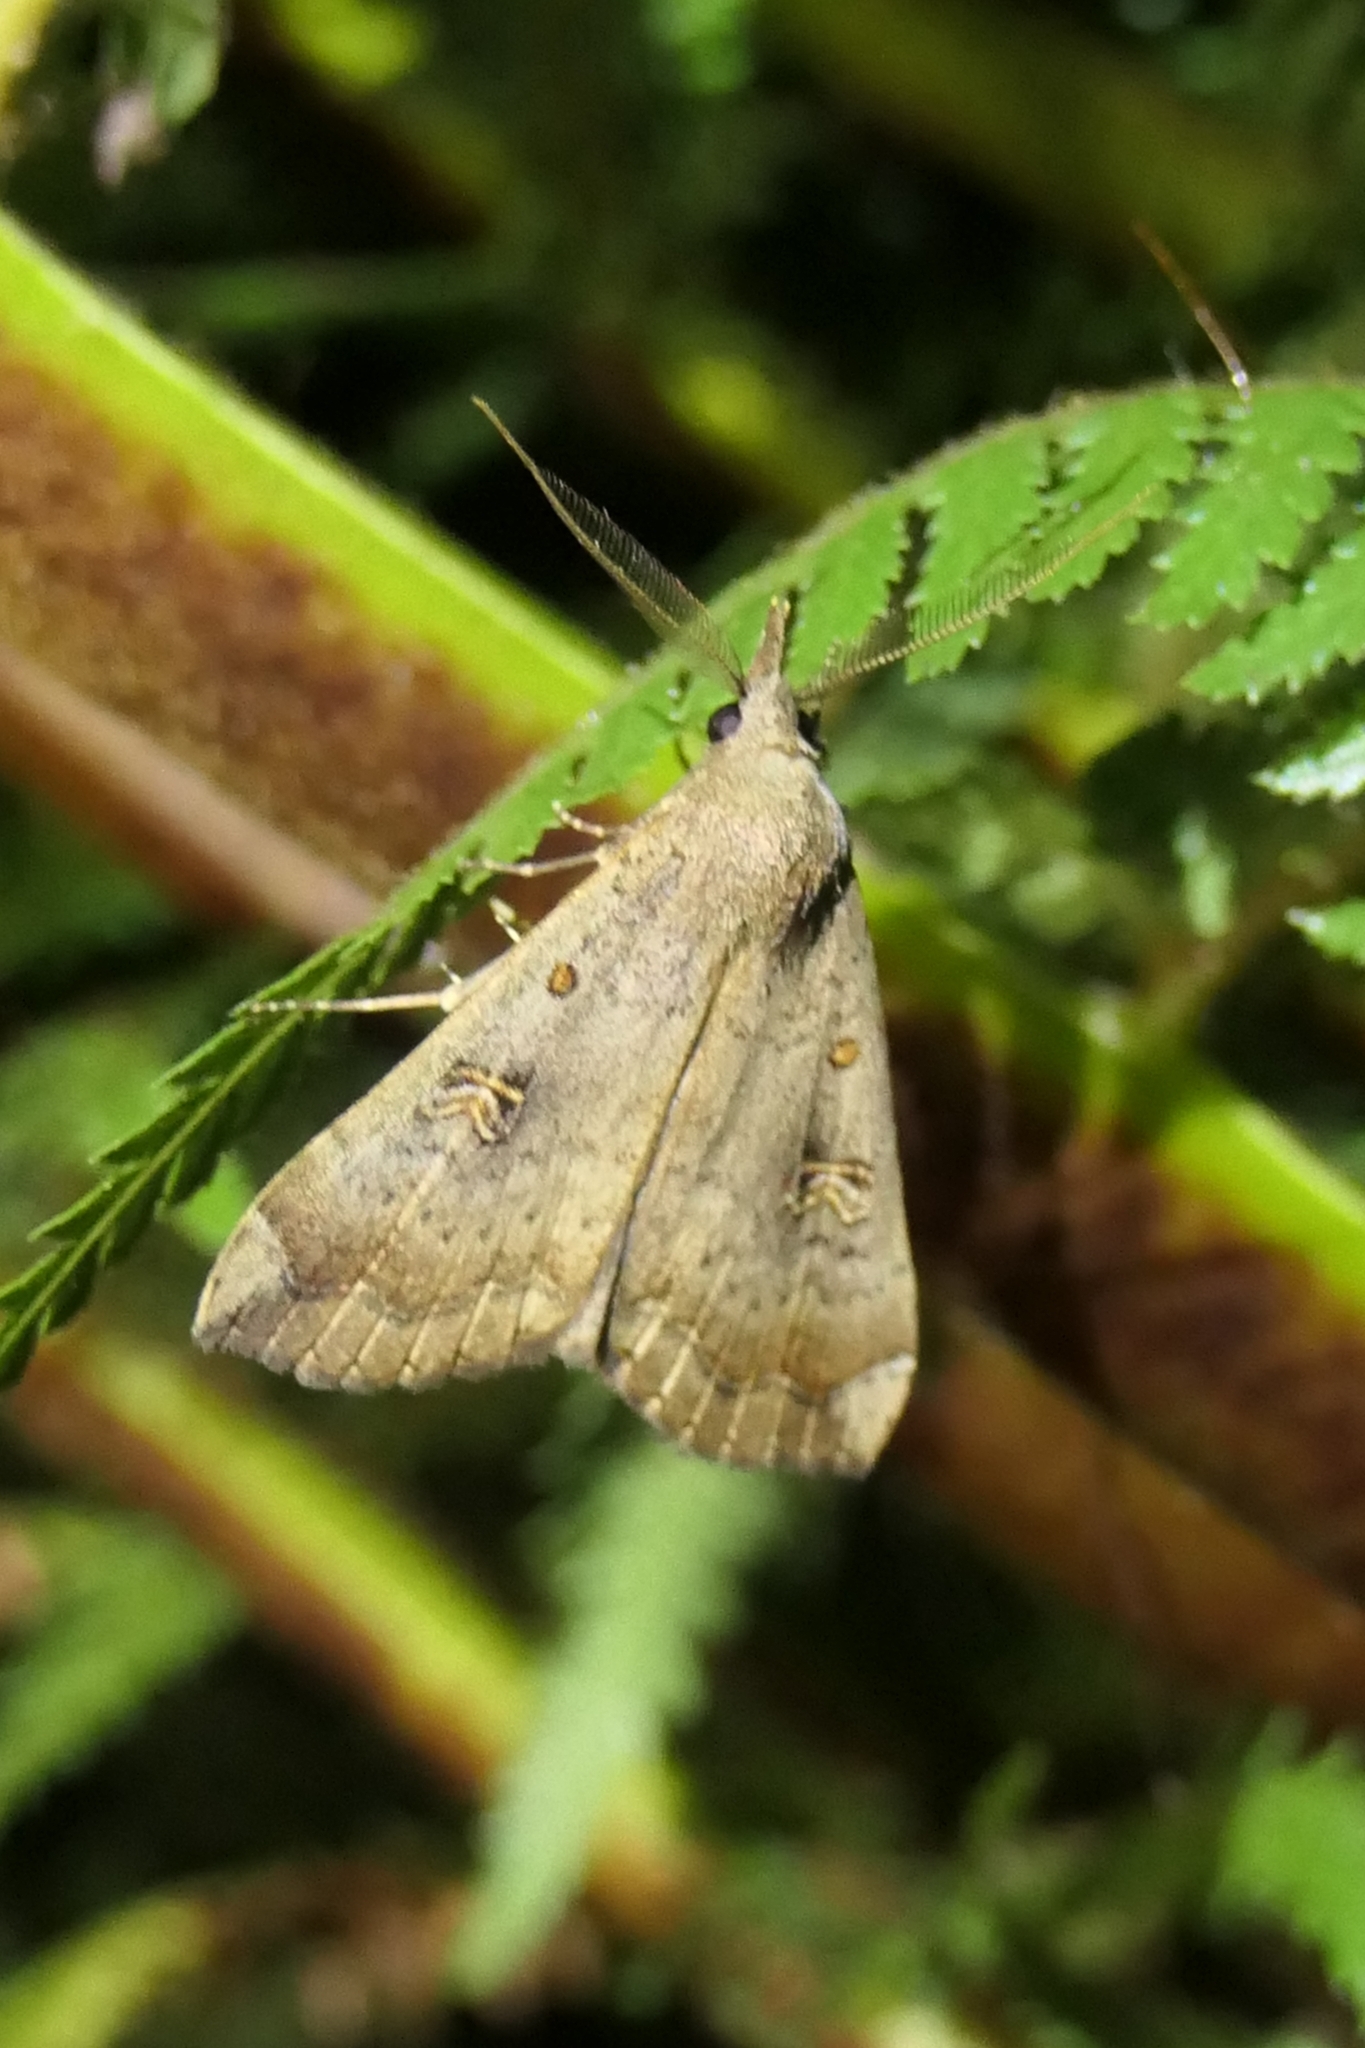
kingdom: Animalia
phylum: Arthropoda
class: Insecta
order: Lepidoptera
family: Erebidae
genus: Rhapsa
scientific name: Rhapsa scotosialis
